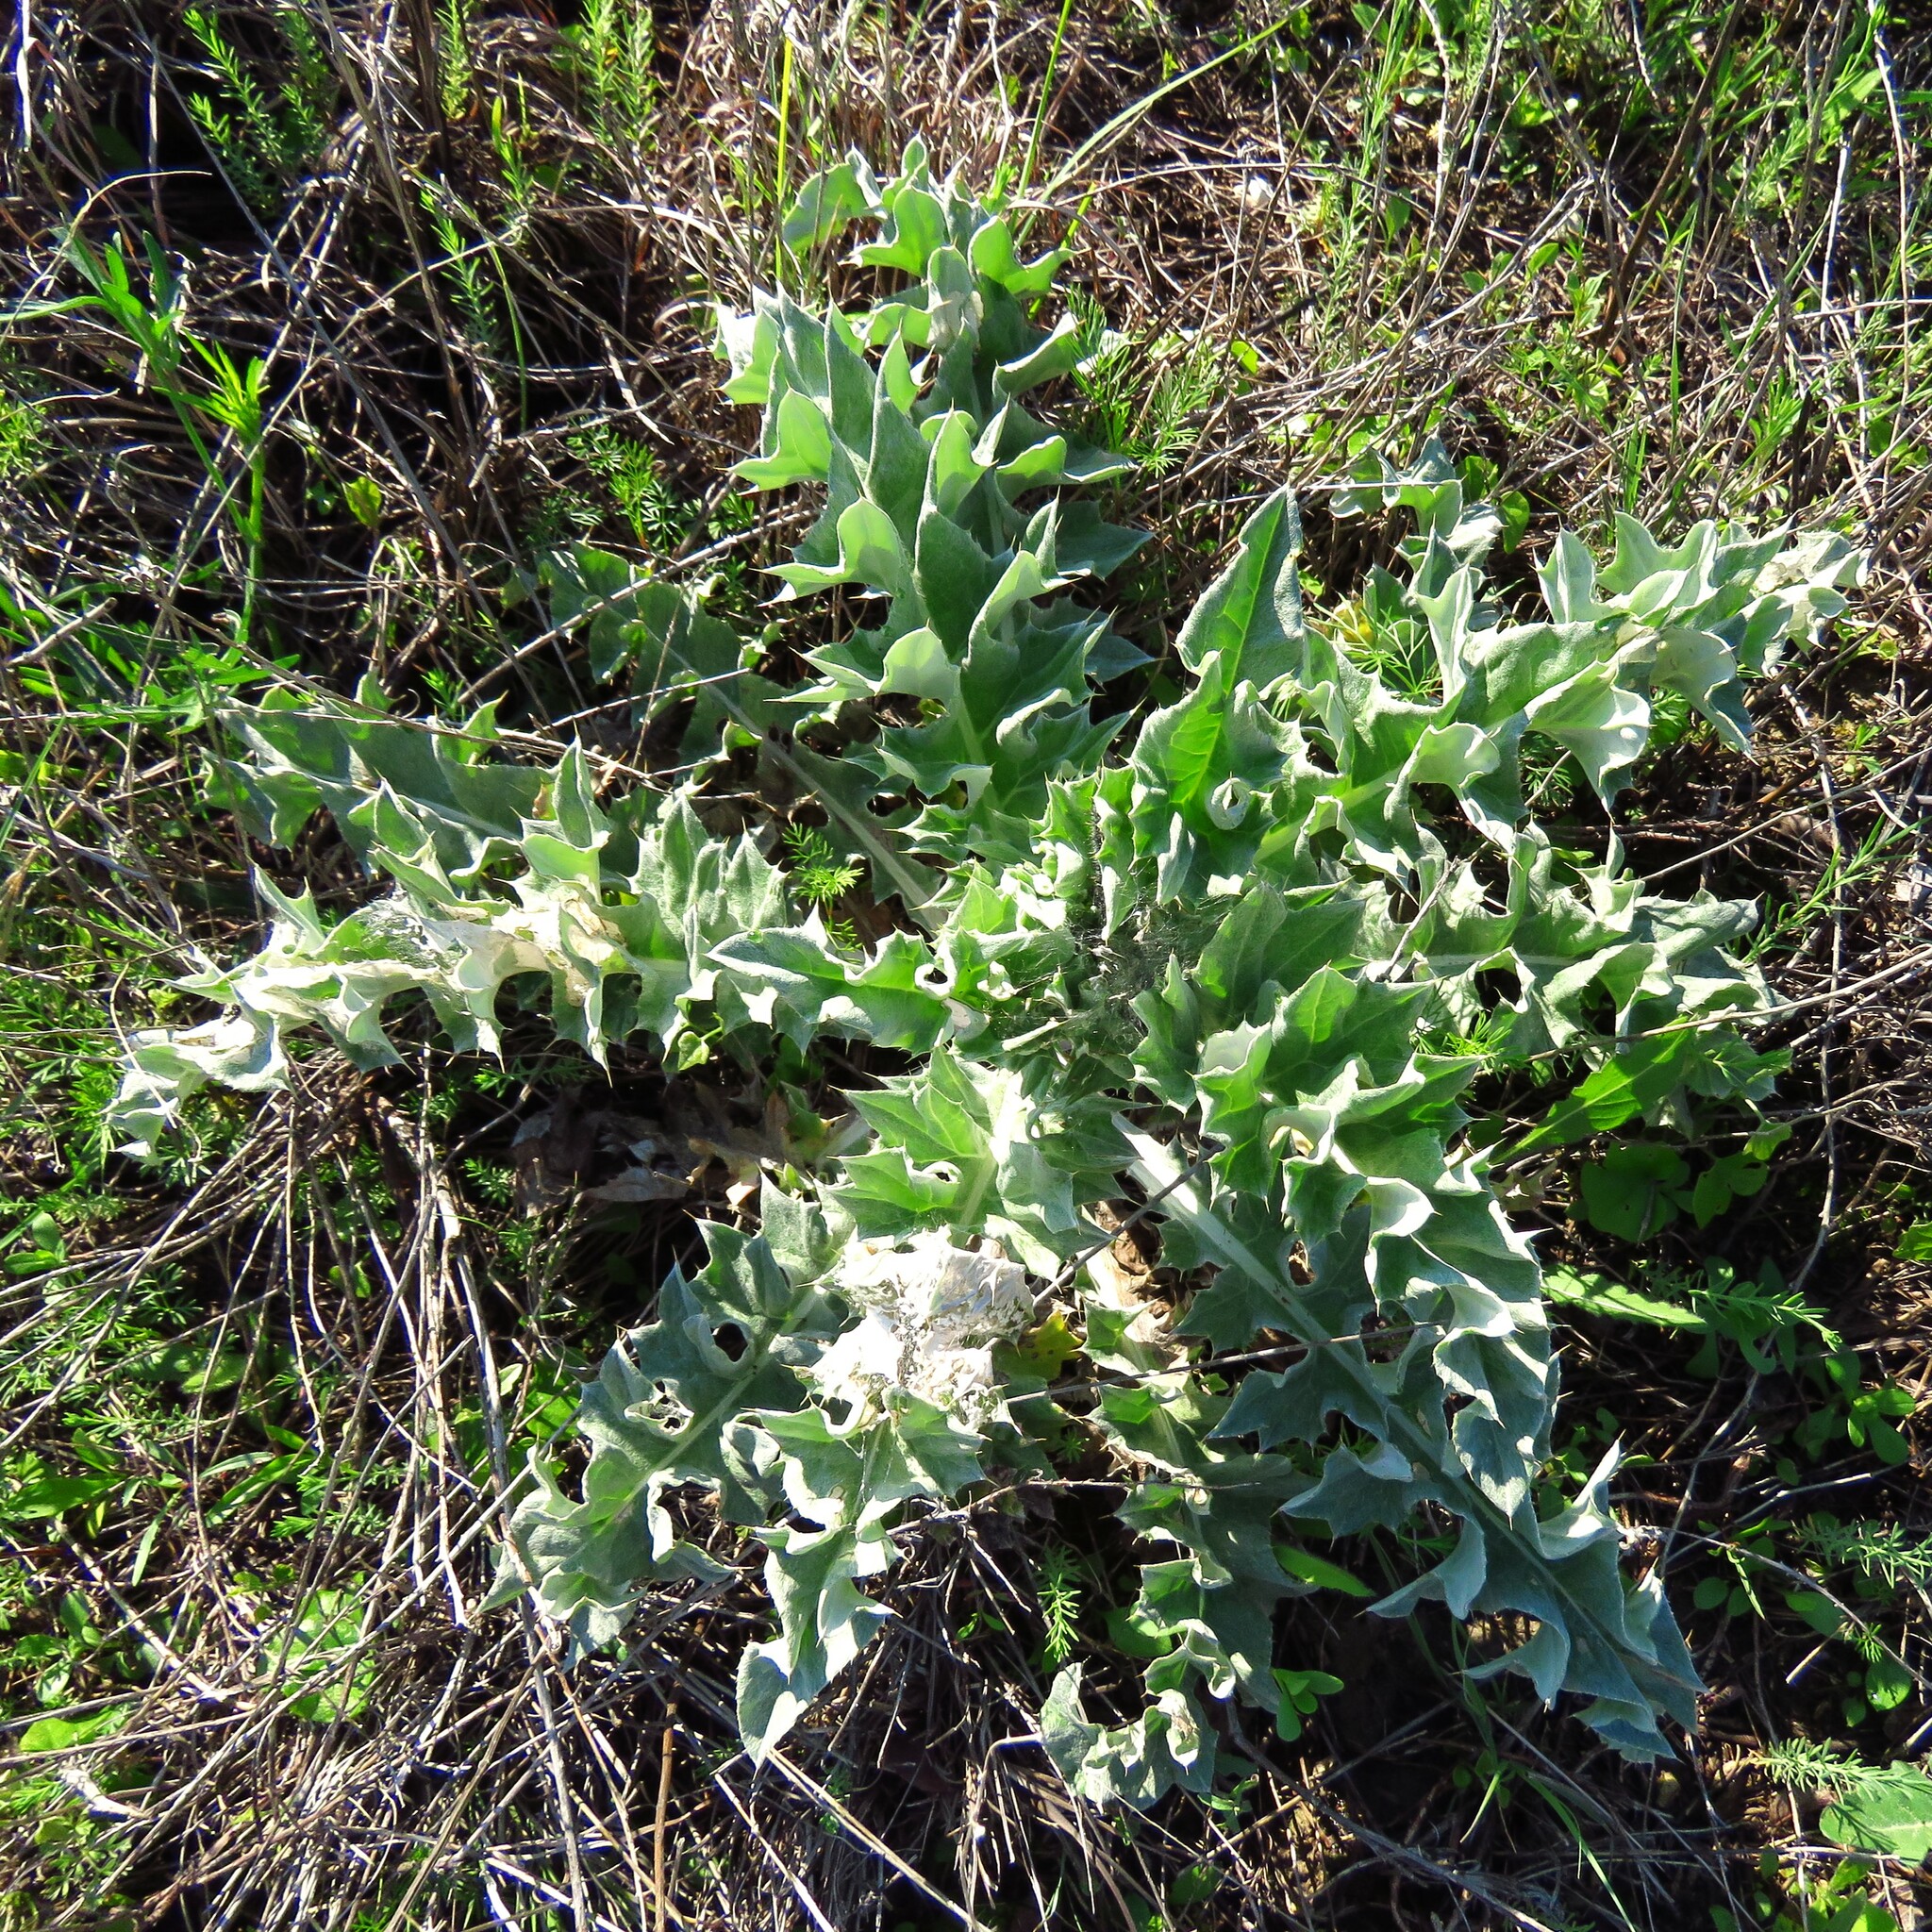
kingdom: Plantae
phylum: Tracheophyta
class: Magnoliopsida
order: Asterales
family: Asteraceae
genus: Cirsium
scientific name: Cirsium undulatum
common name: Pasture thistle
